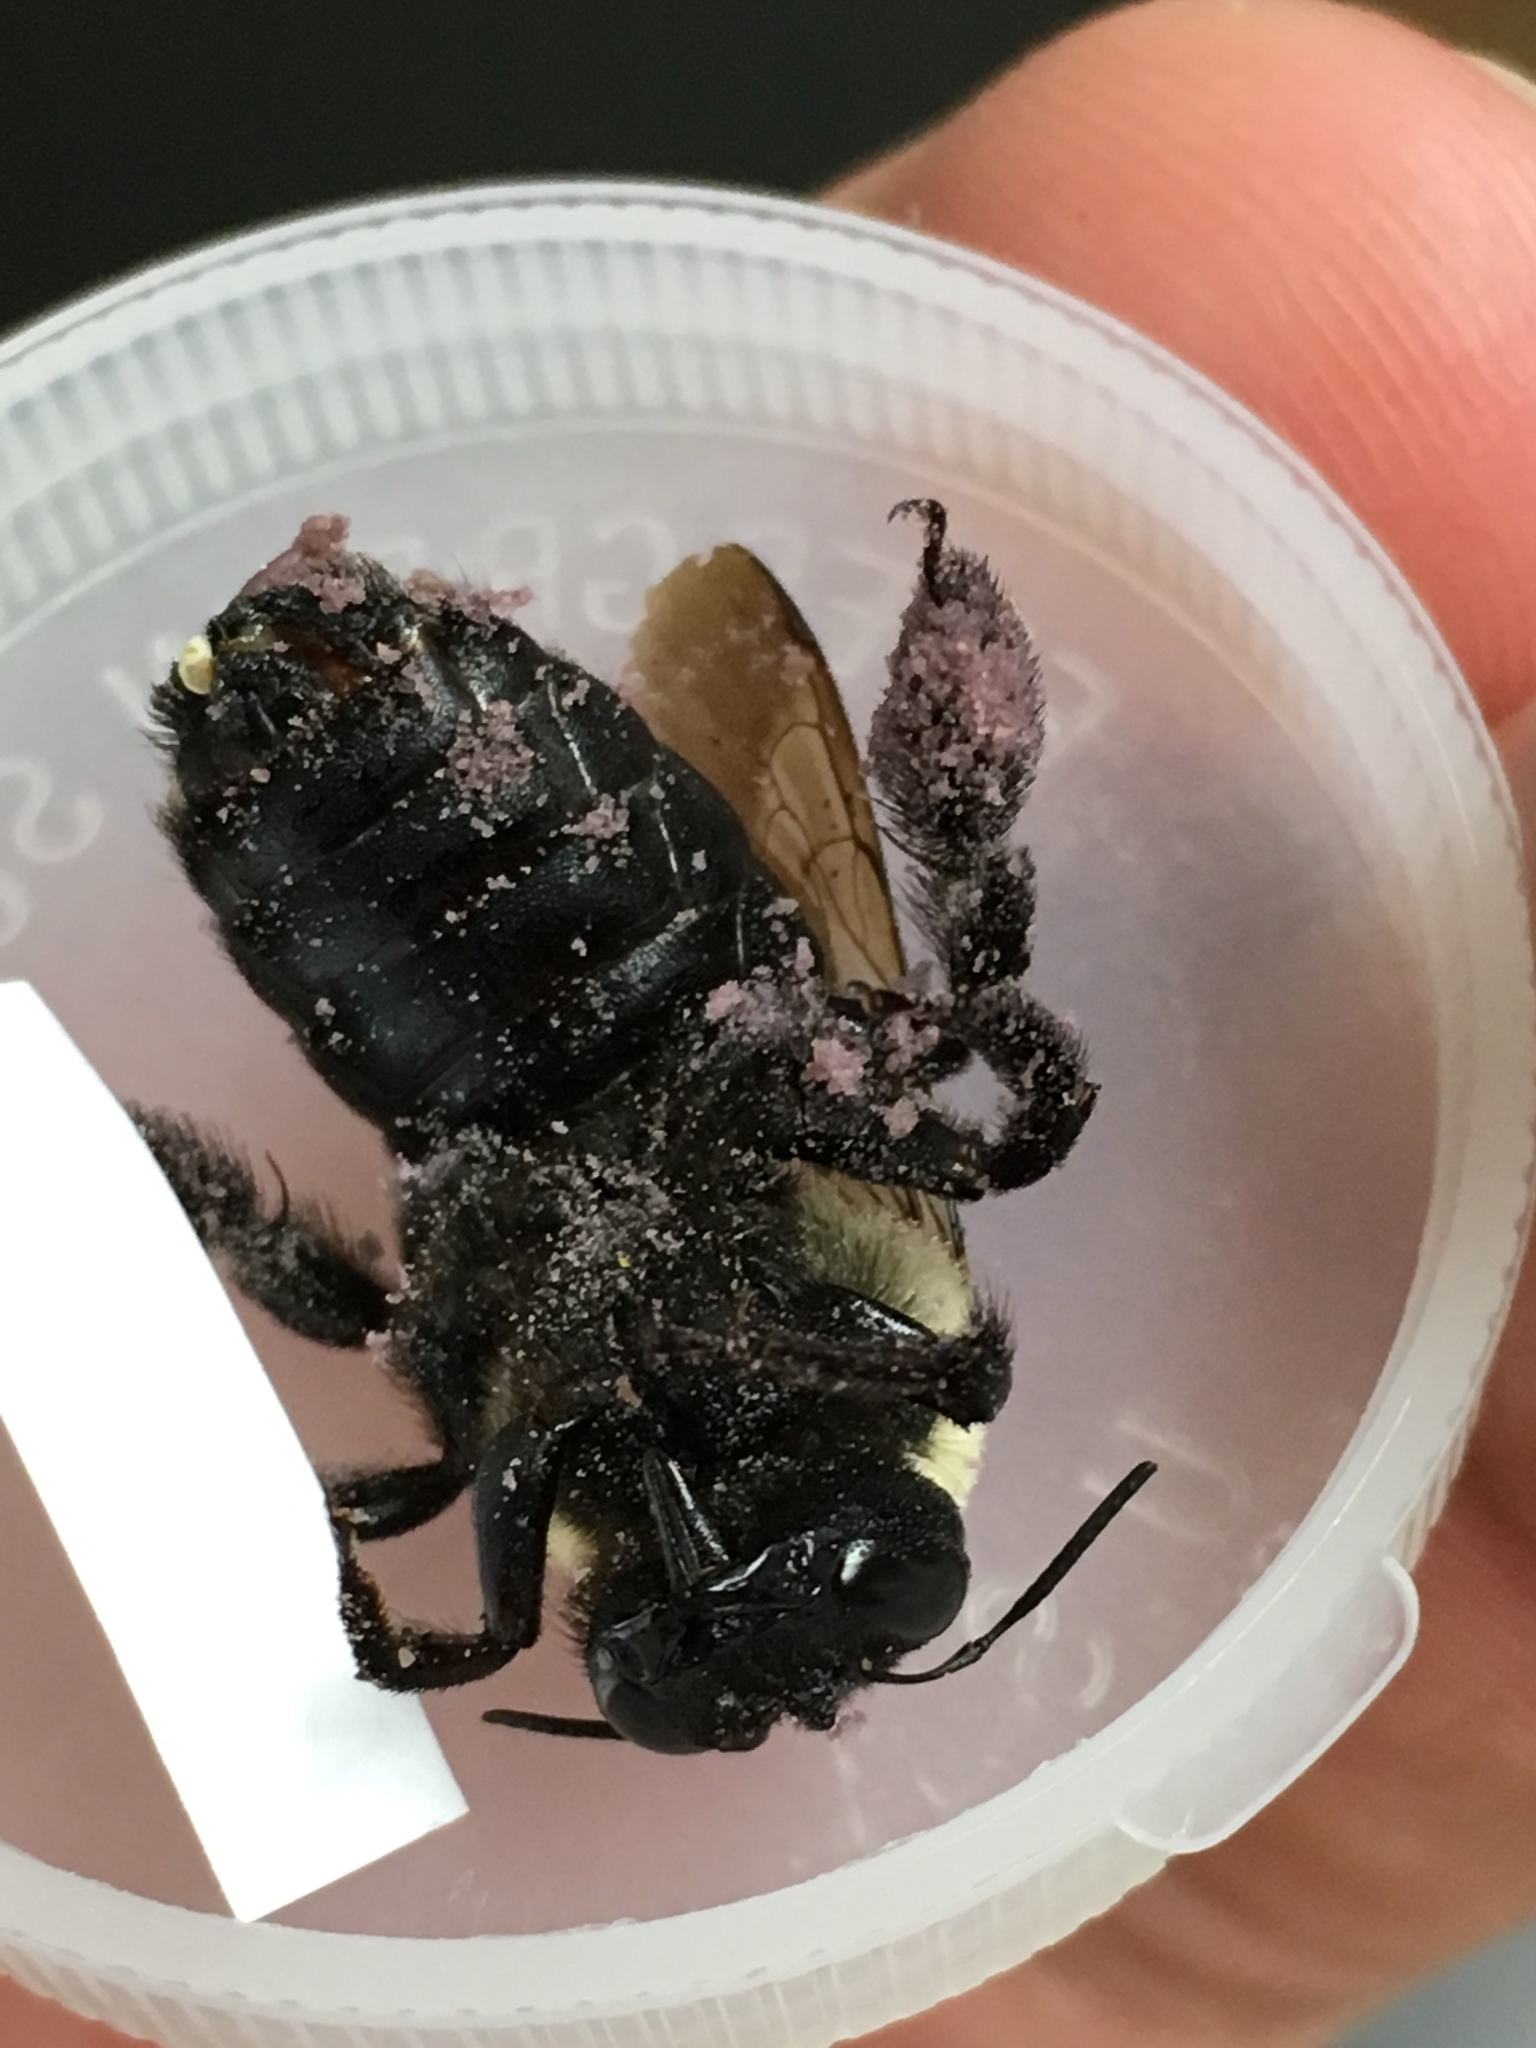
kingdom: Animalia
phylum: Arthropoda
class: Insecta
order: Hymenoptera
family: Apidae
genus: Xylocopa
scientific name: Xylocopa virginica
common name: Carpenter bee
